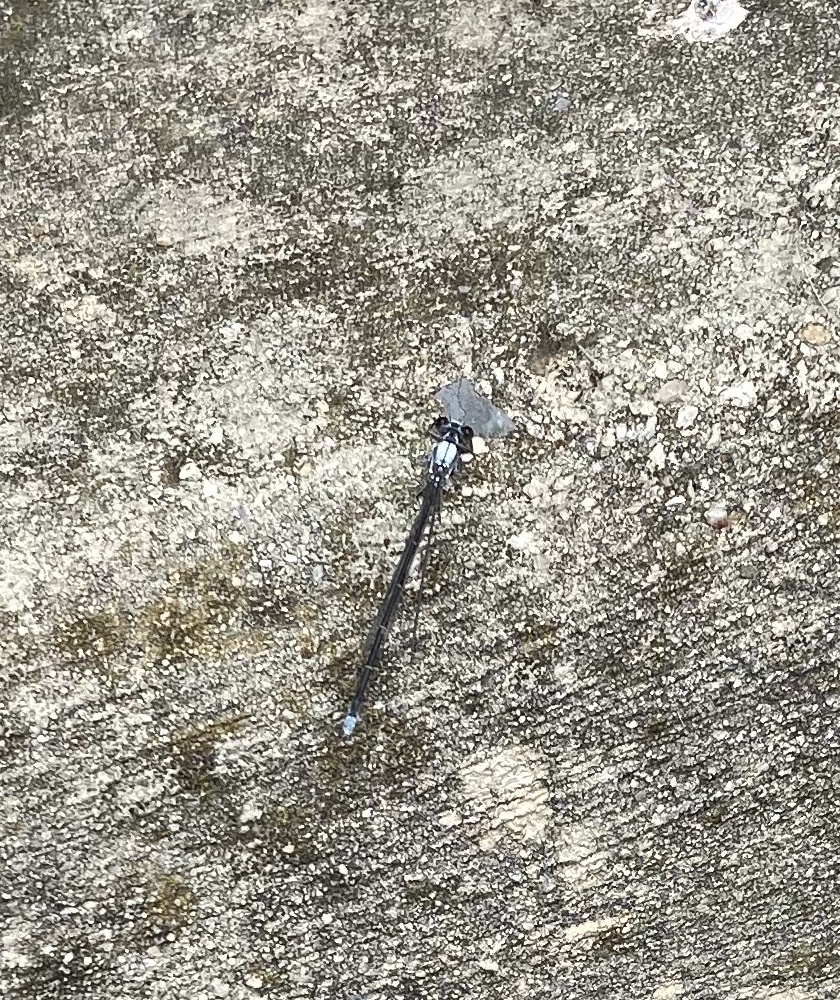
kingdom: Animalia
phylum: Arthropoda
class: Insecta
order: Odonata
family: Coenagrionidae
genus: Argia
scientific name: Argia moesta
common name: Powdered dancer
